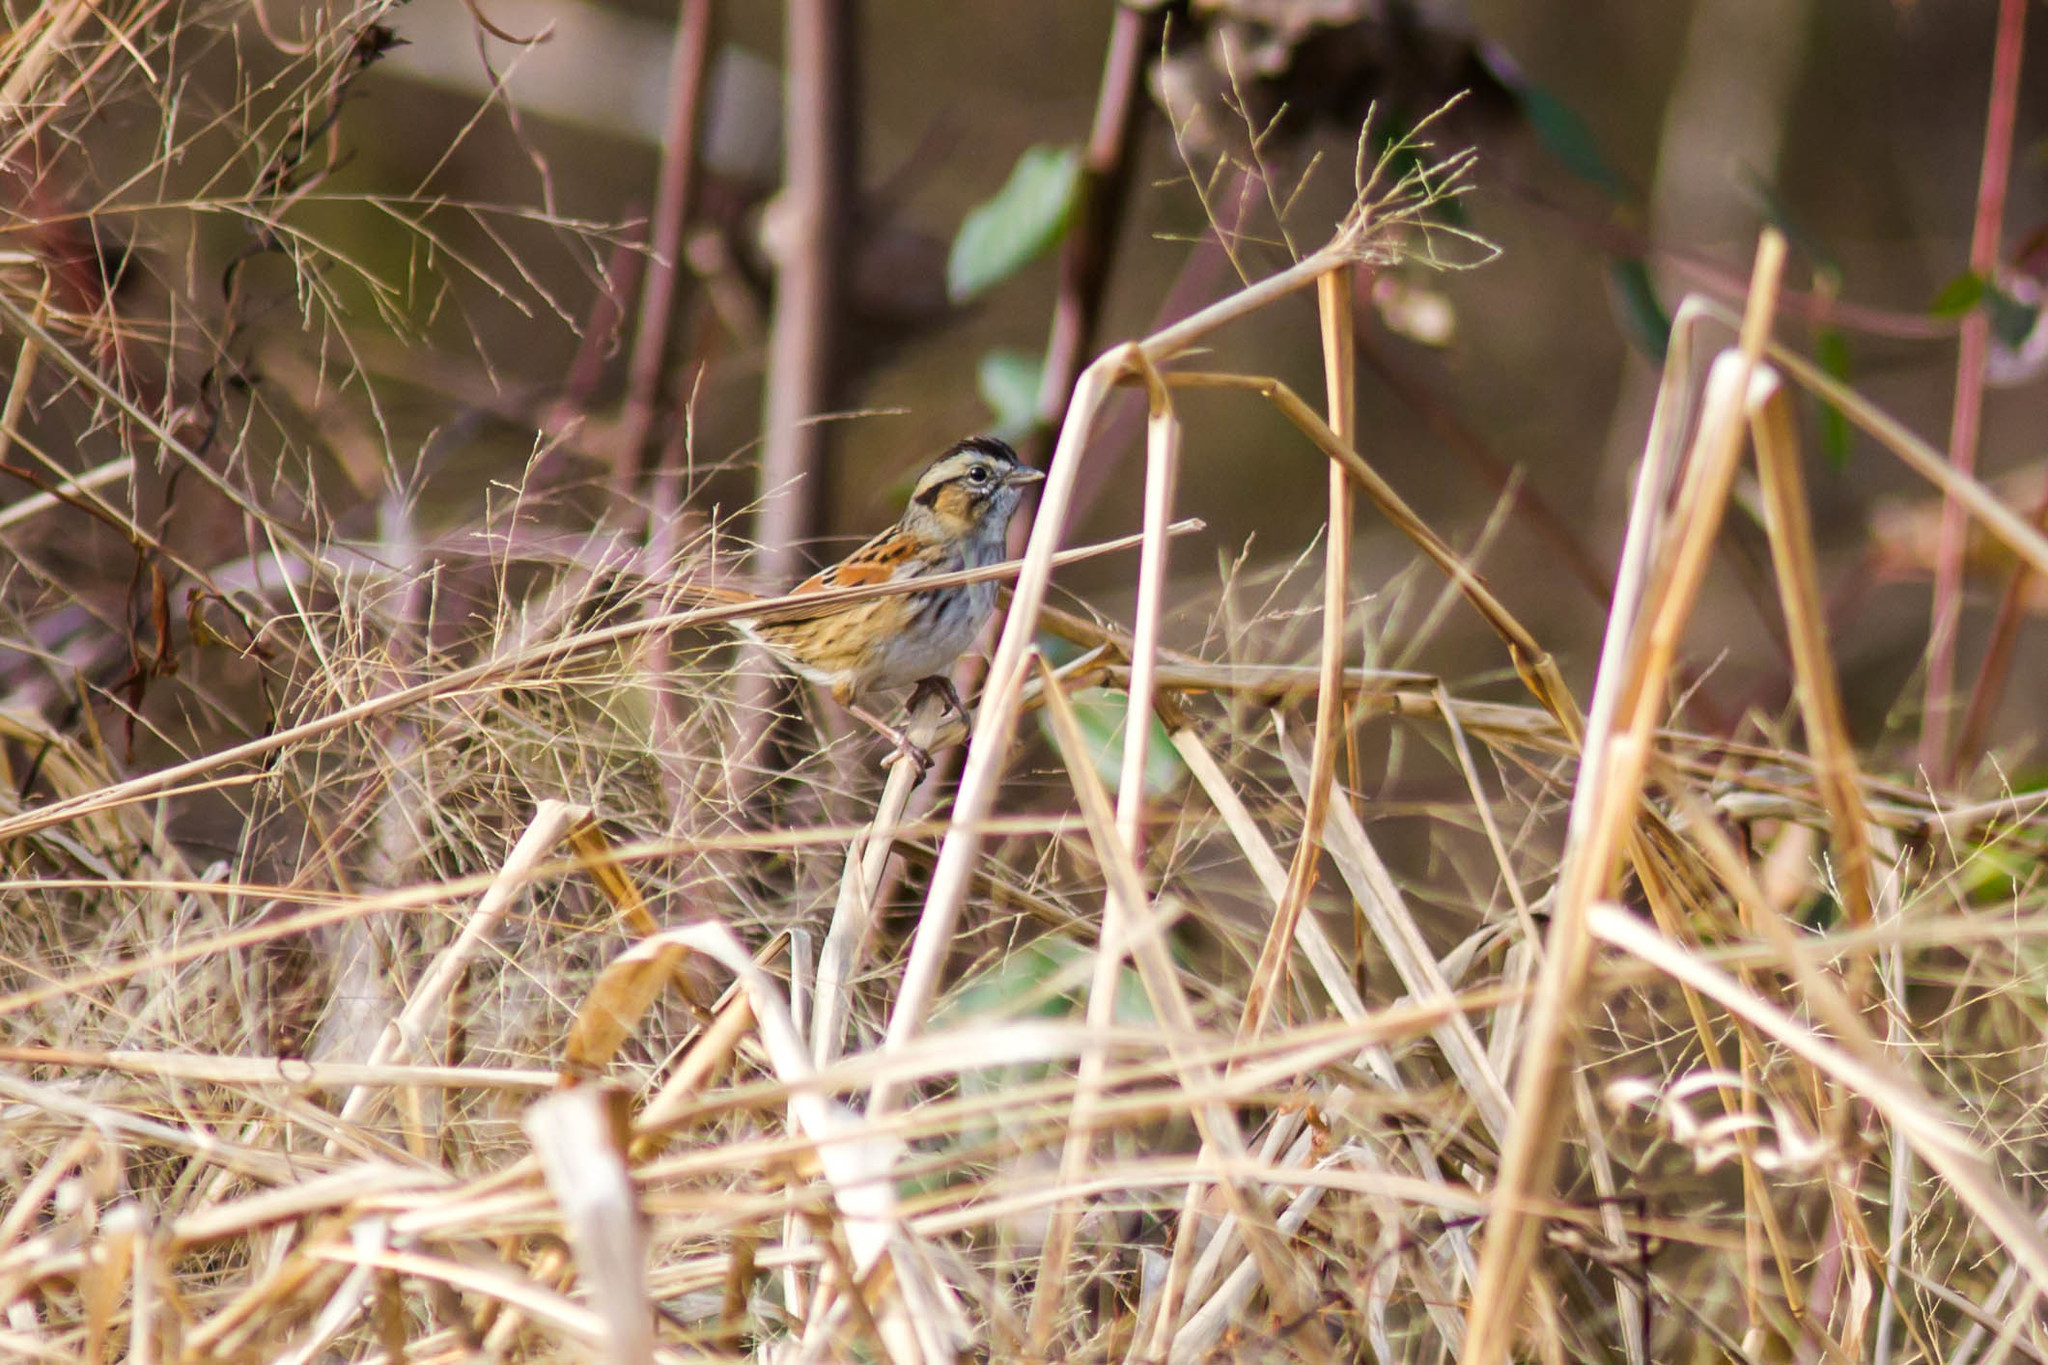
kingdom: Animalia
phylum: Chordata
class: Aves
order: Passeriformes
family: Passerellidae
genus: Melospiza
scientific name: Melospiza georgiana
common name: Swamp sparrow
